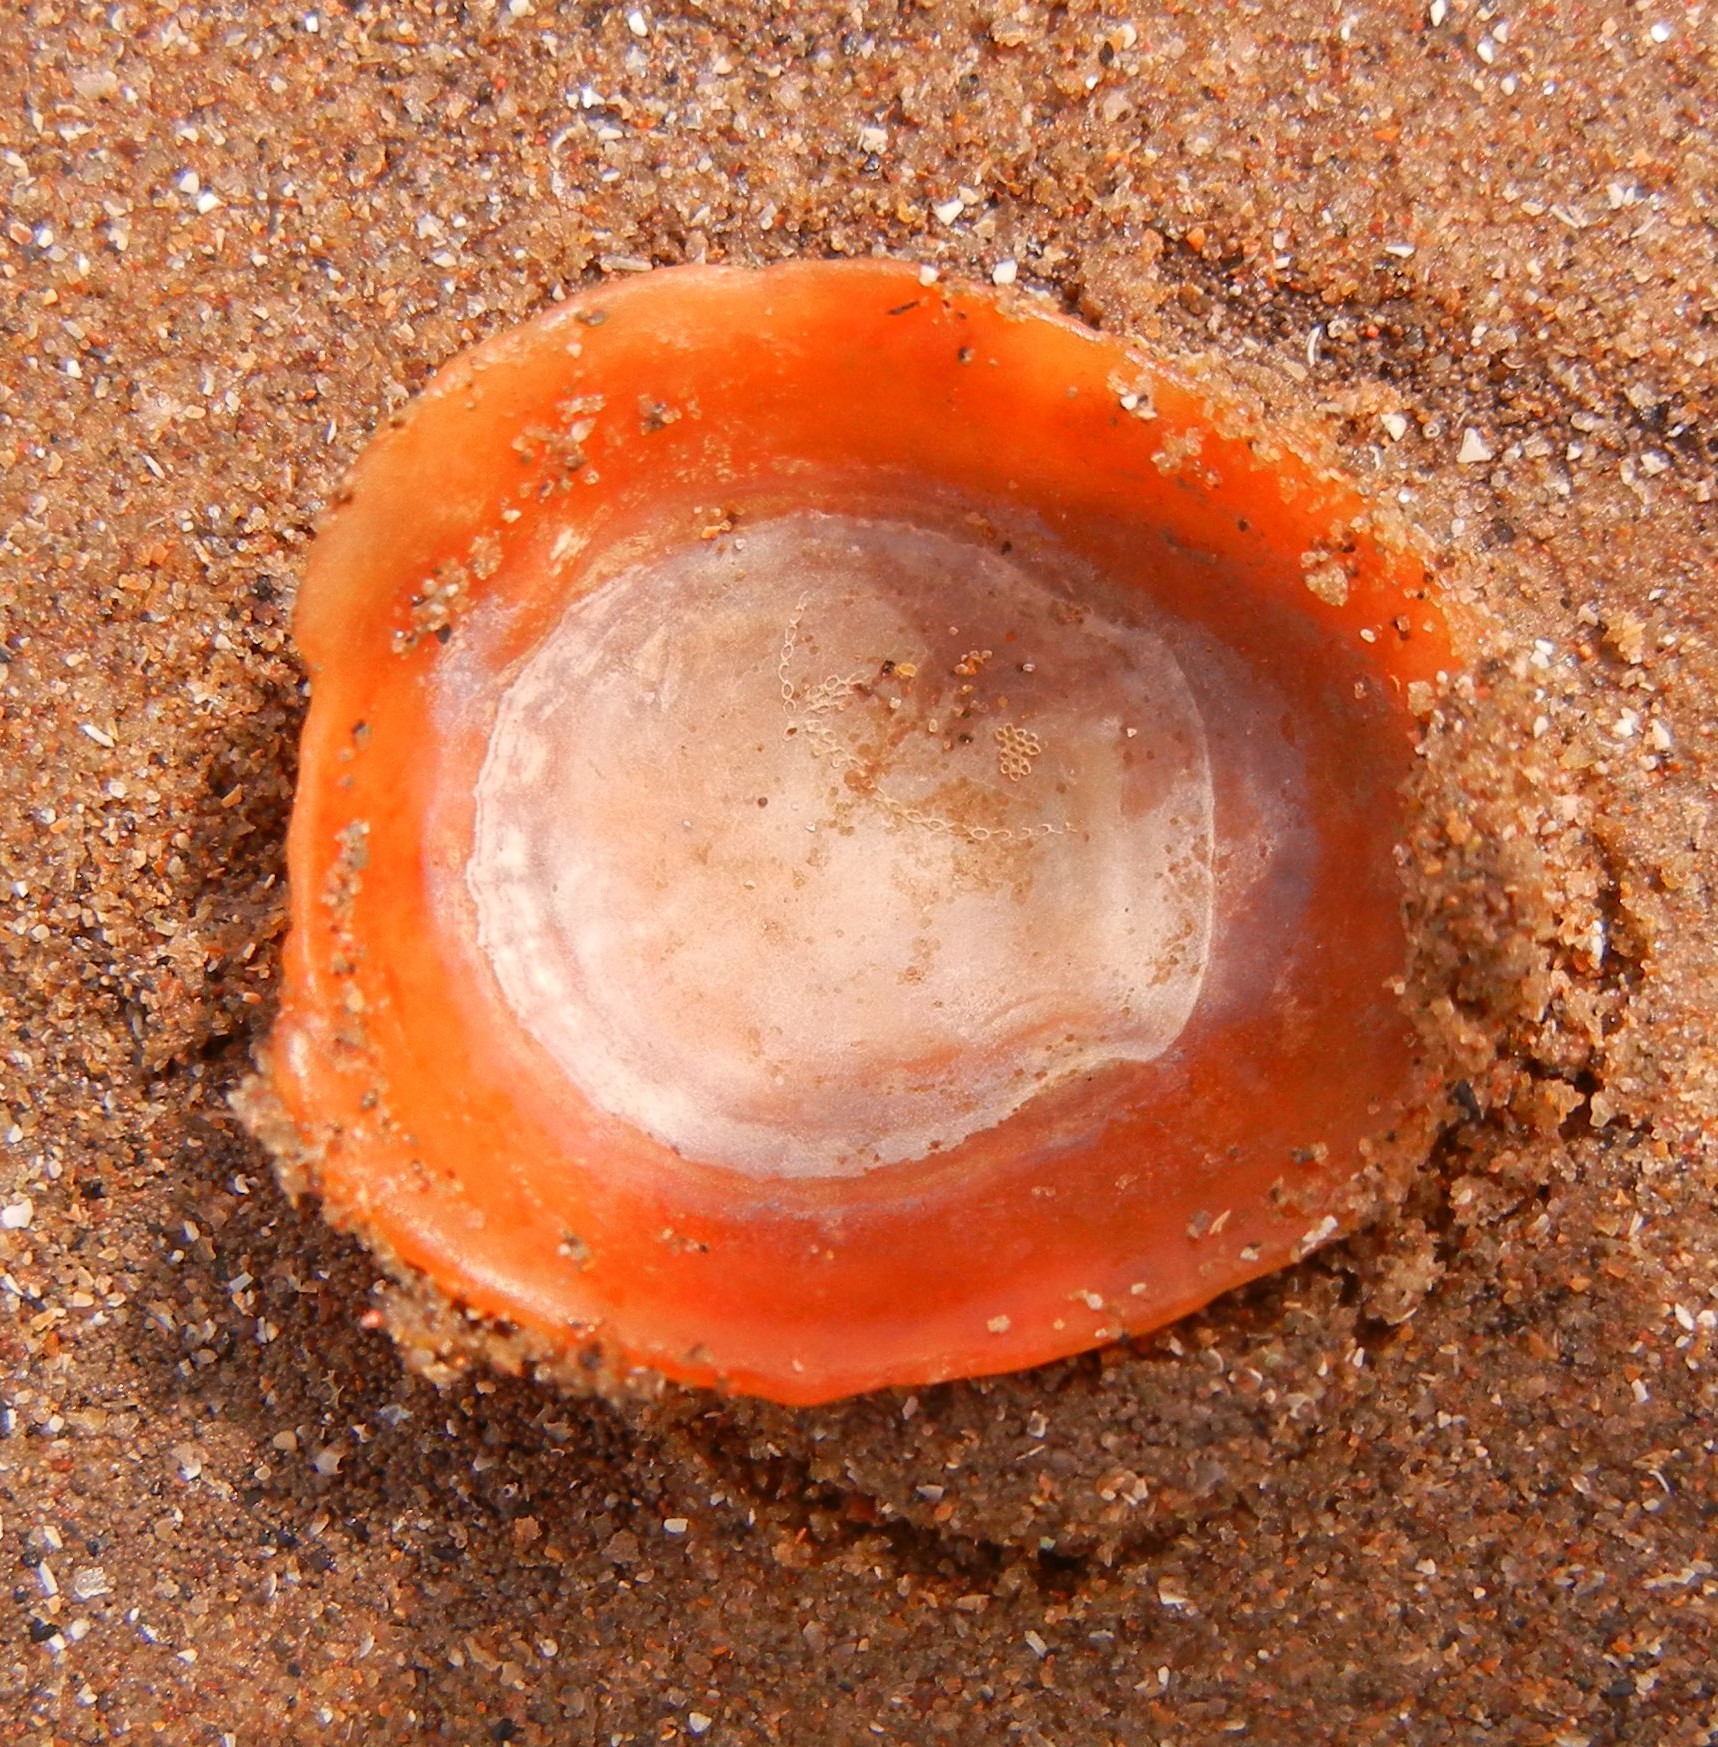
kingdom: Animalia
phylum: Mollusca
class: Gastropoda
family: Patellidae
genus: Patella
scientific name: Patella vulgata
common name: Common limpet
